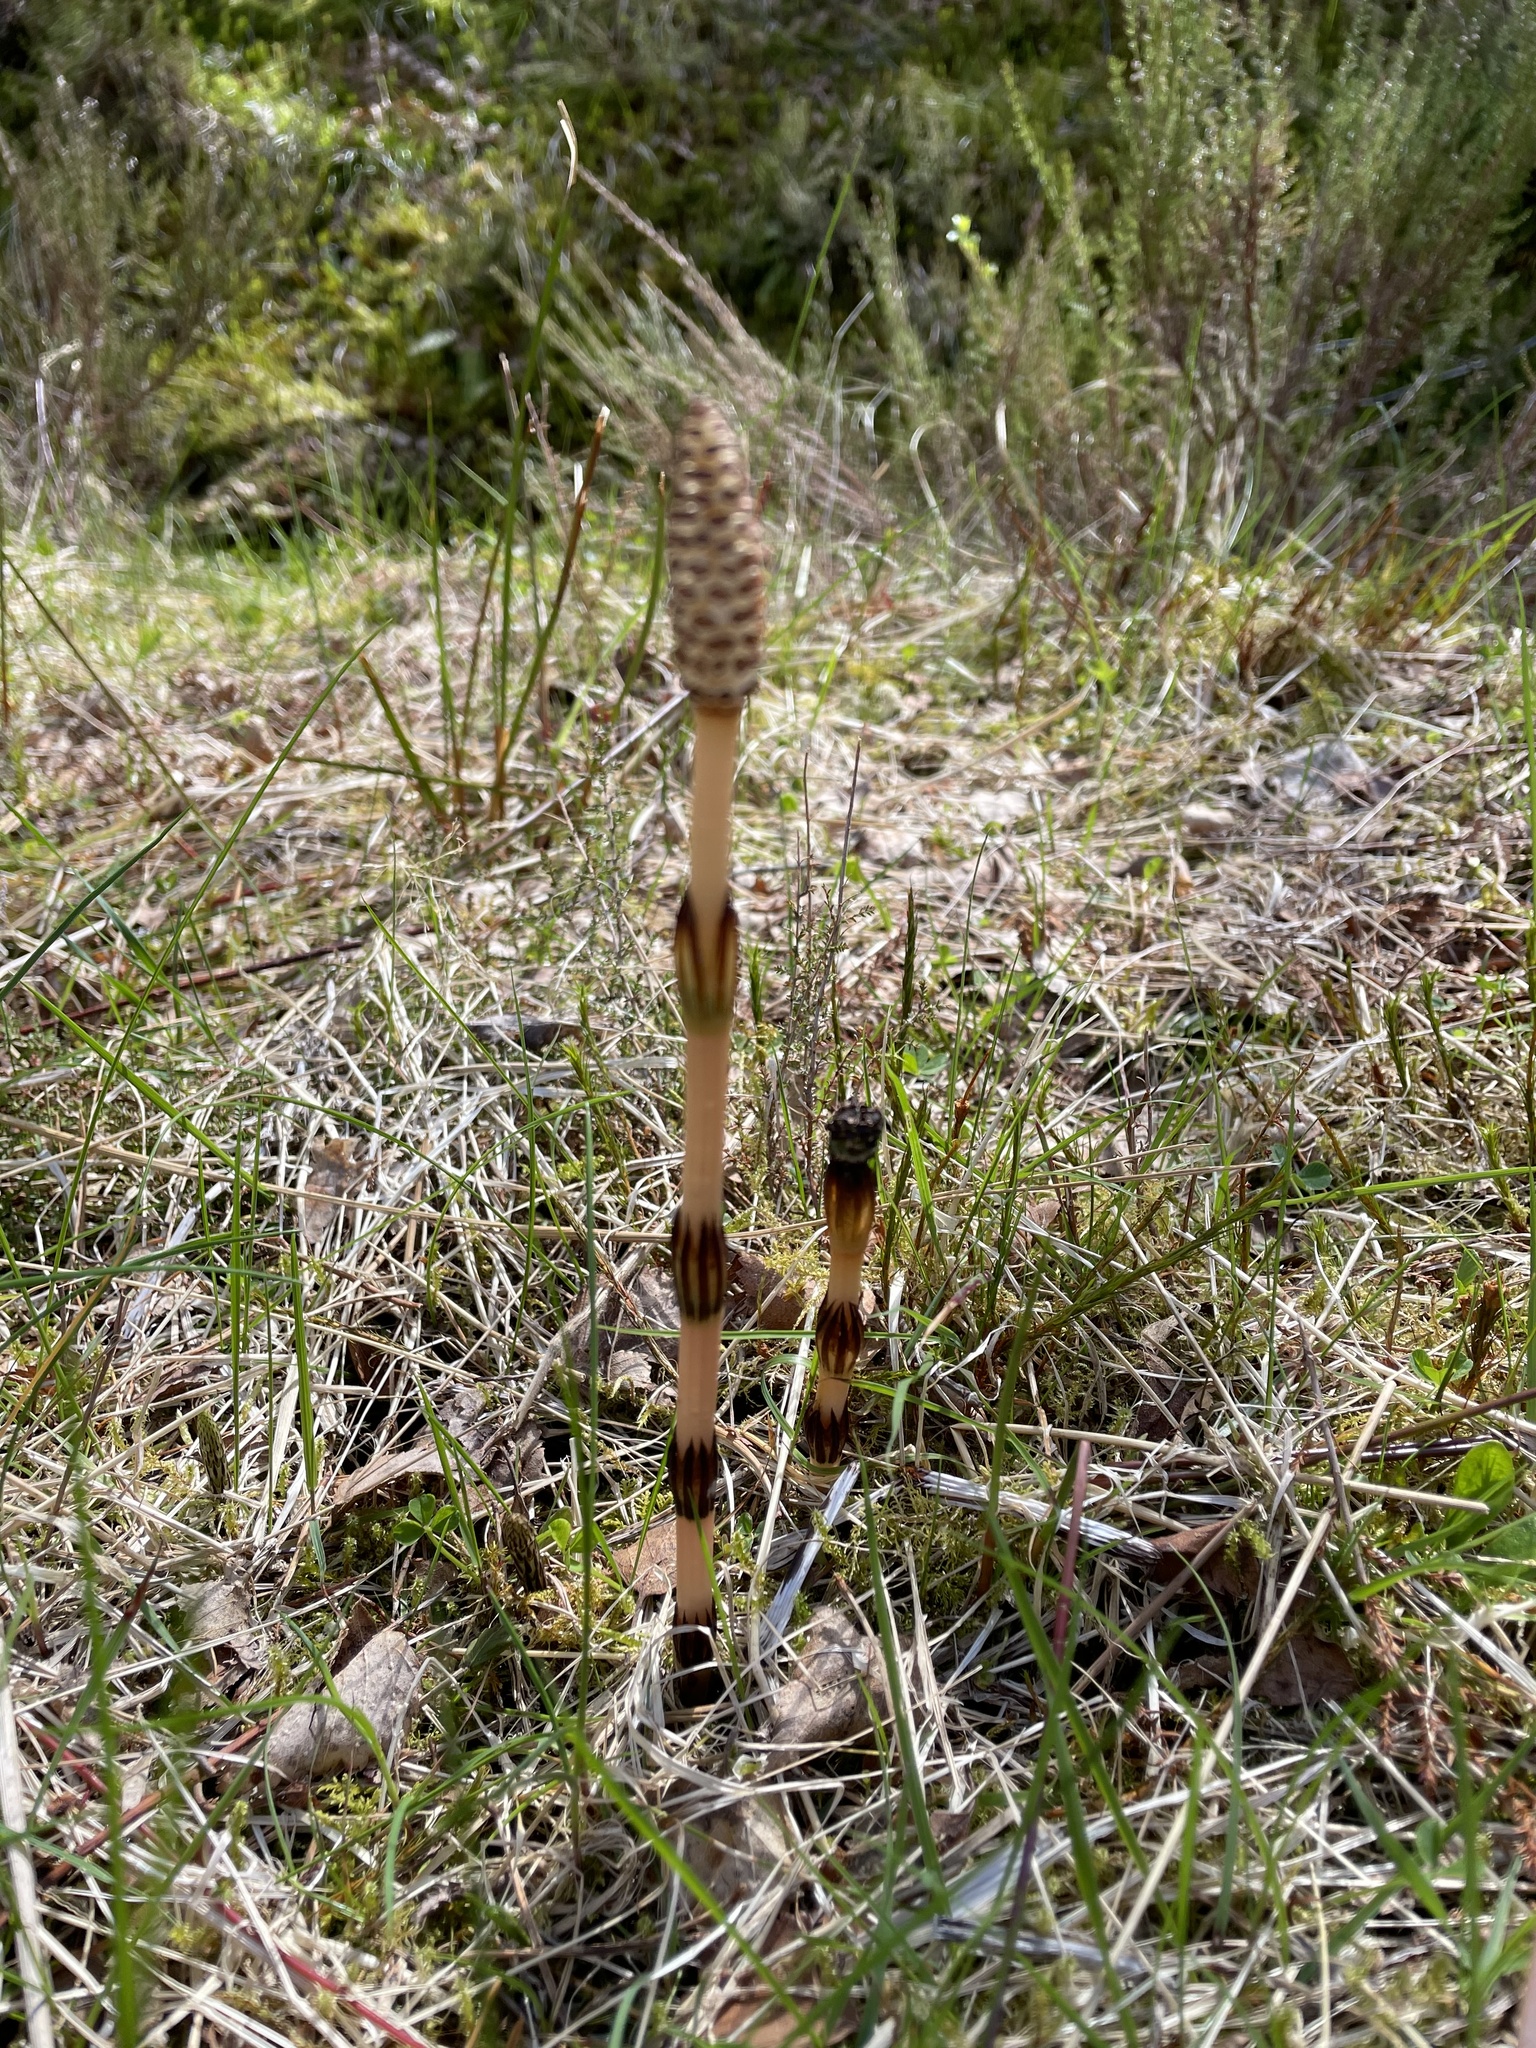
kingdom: Plantae
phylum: Tracheophyta
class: Polypodiopsida
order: Equisetales
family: Equisetaceae
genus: Equisetum
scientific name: Equisetum arvense
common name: Field horsetail
